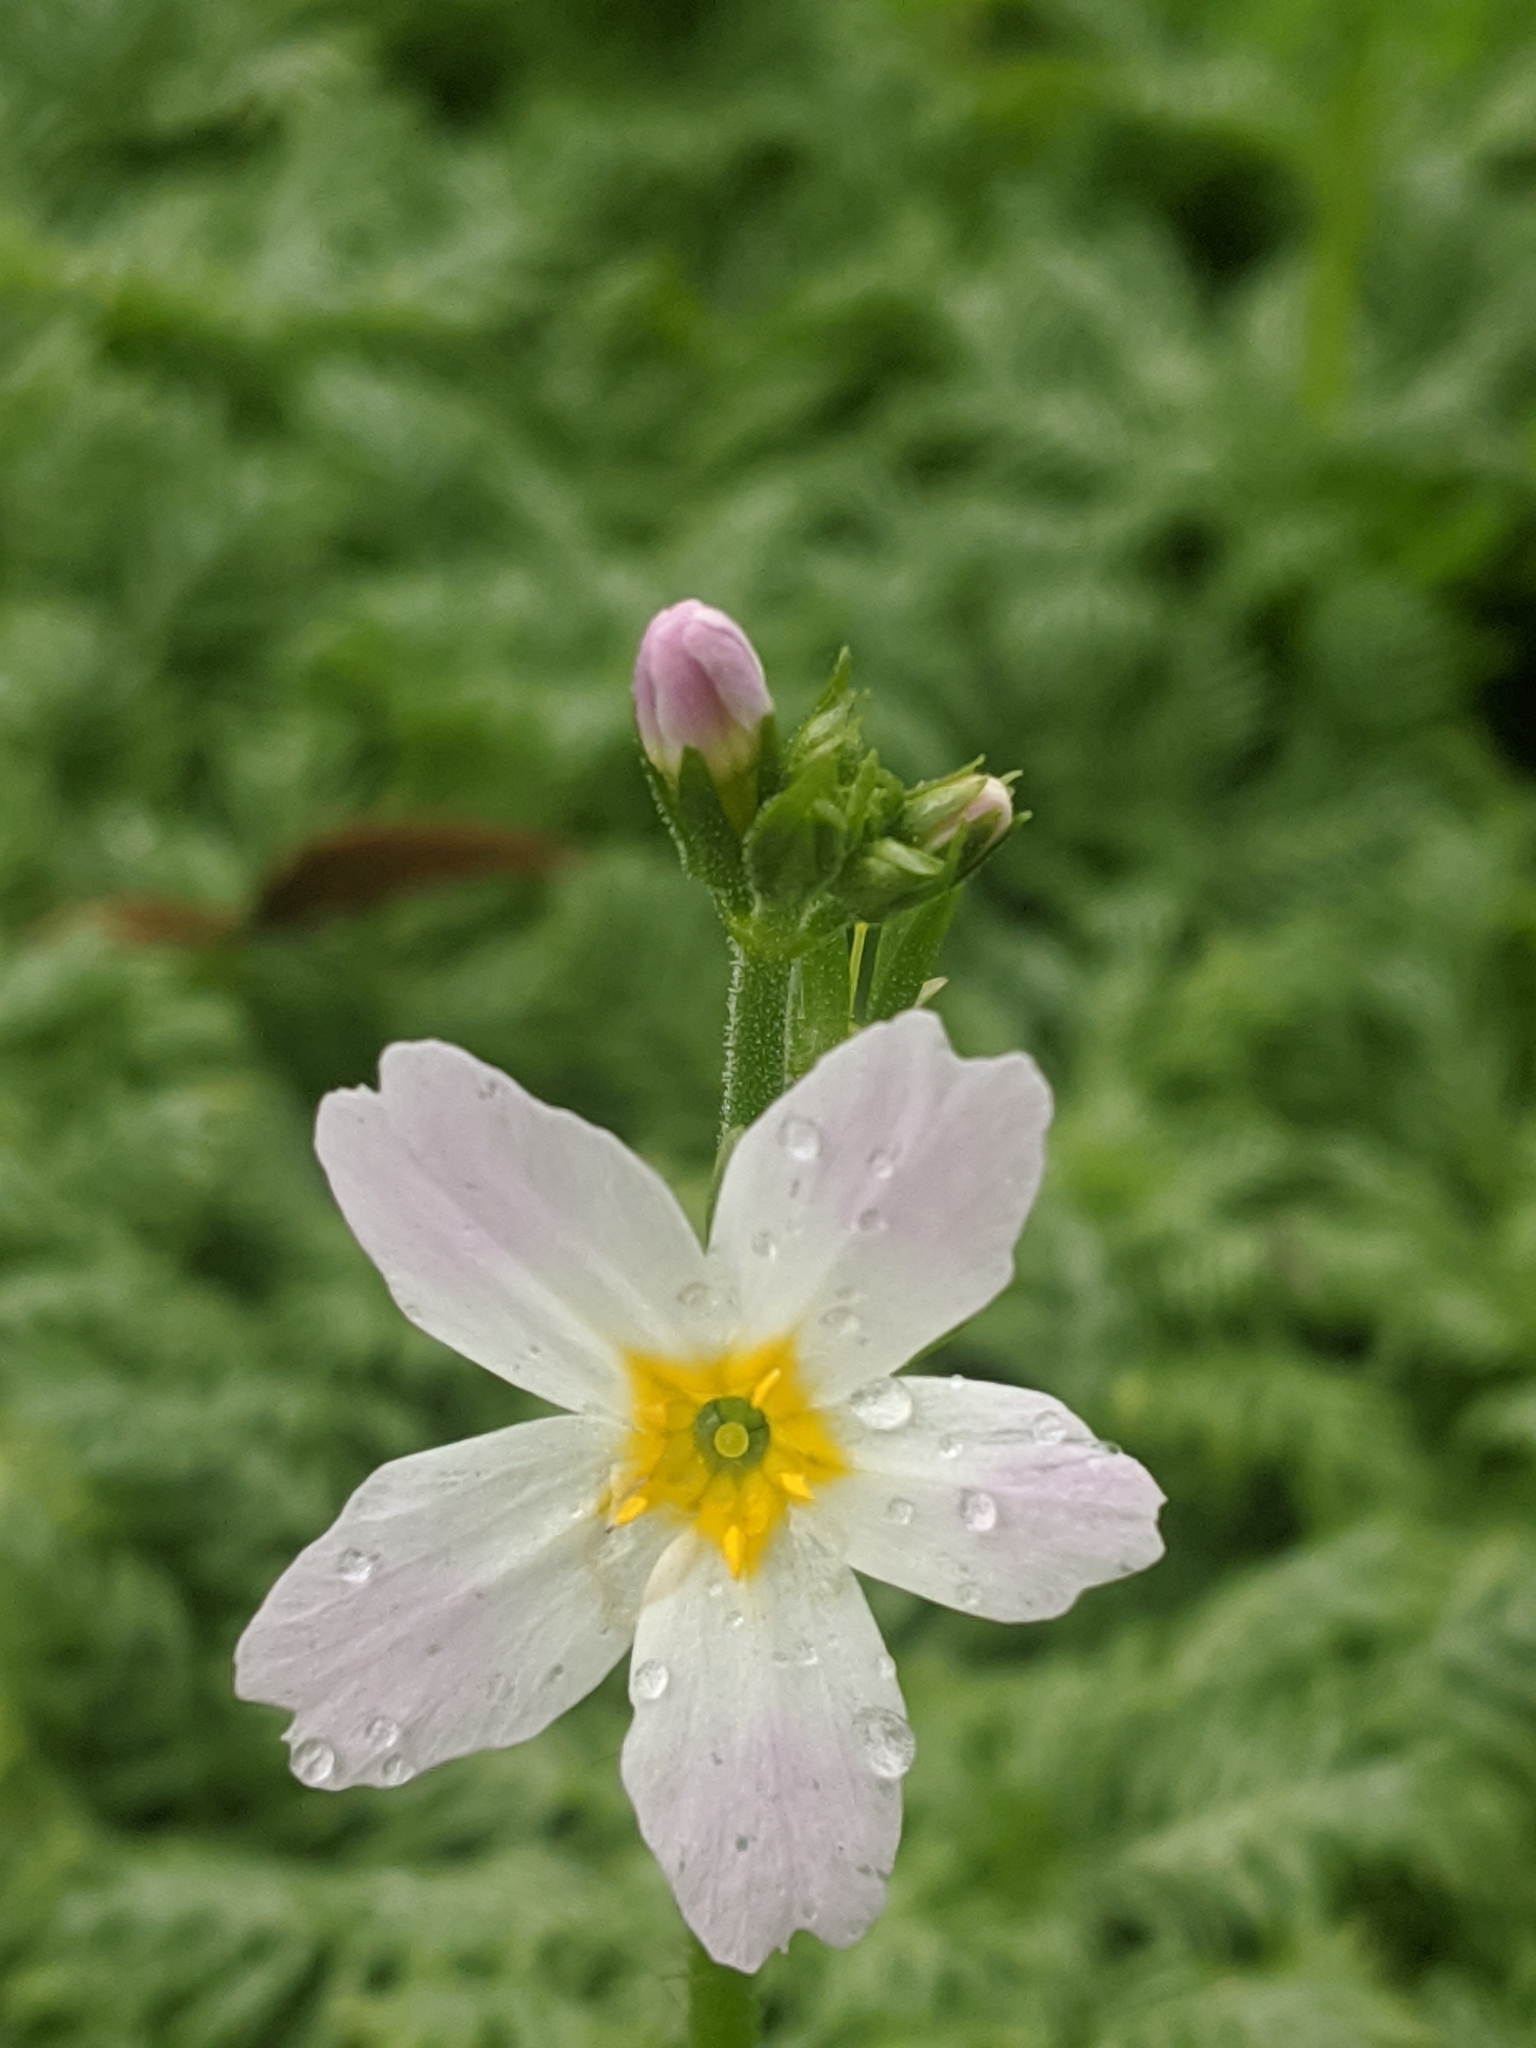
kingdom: Plantae
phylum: Tracheophyta
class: Magnoliopsida
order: Ericales
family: Primulaceae
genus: Hottonia
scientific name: Hottonia palustris
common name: Water-violet
